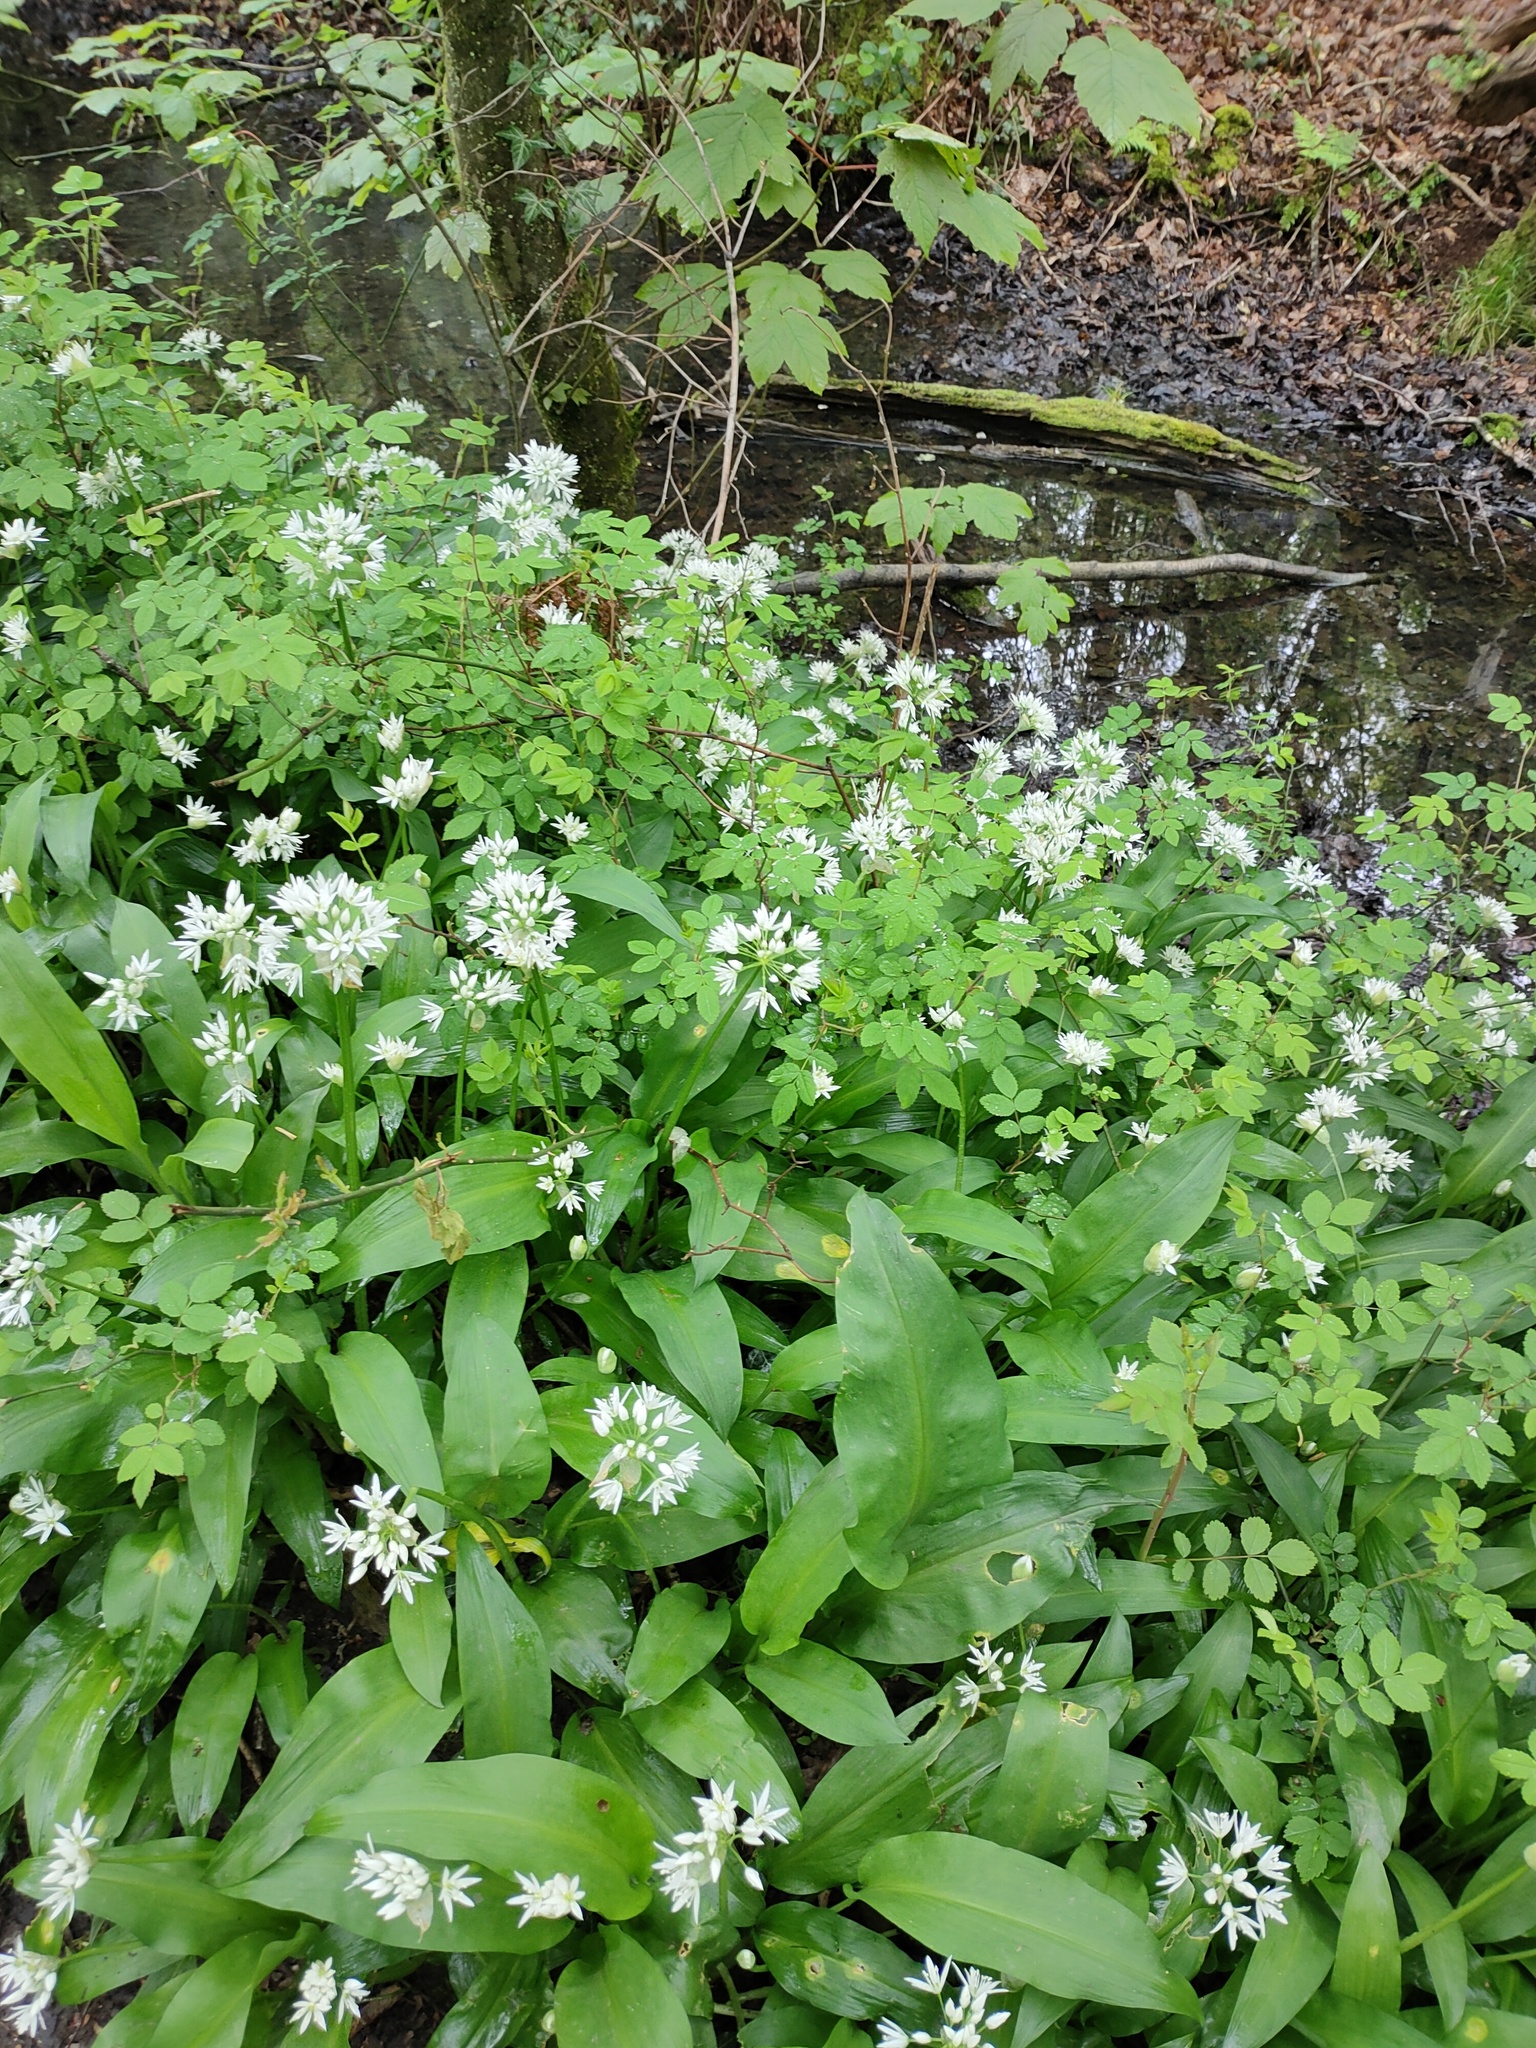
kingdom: Plantae
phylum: Tracheophyta
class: Liliopsida
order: Asparagales
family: Amaryllidaceae
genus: Allium
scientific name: Allium ursinum
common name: Ramsons
